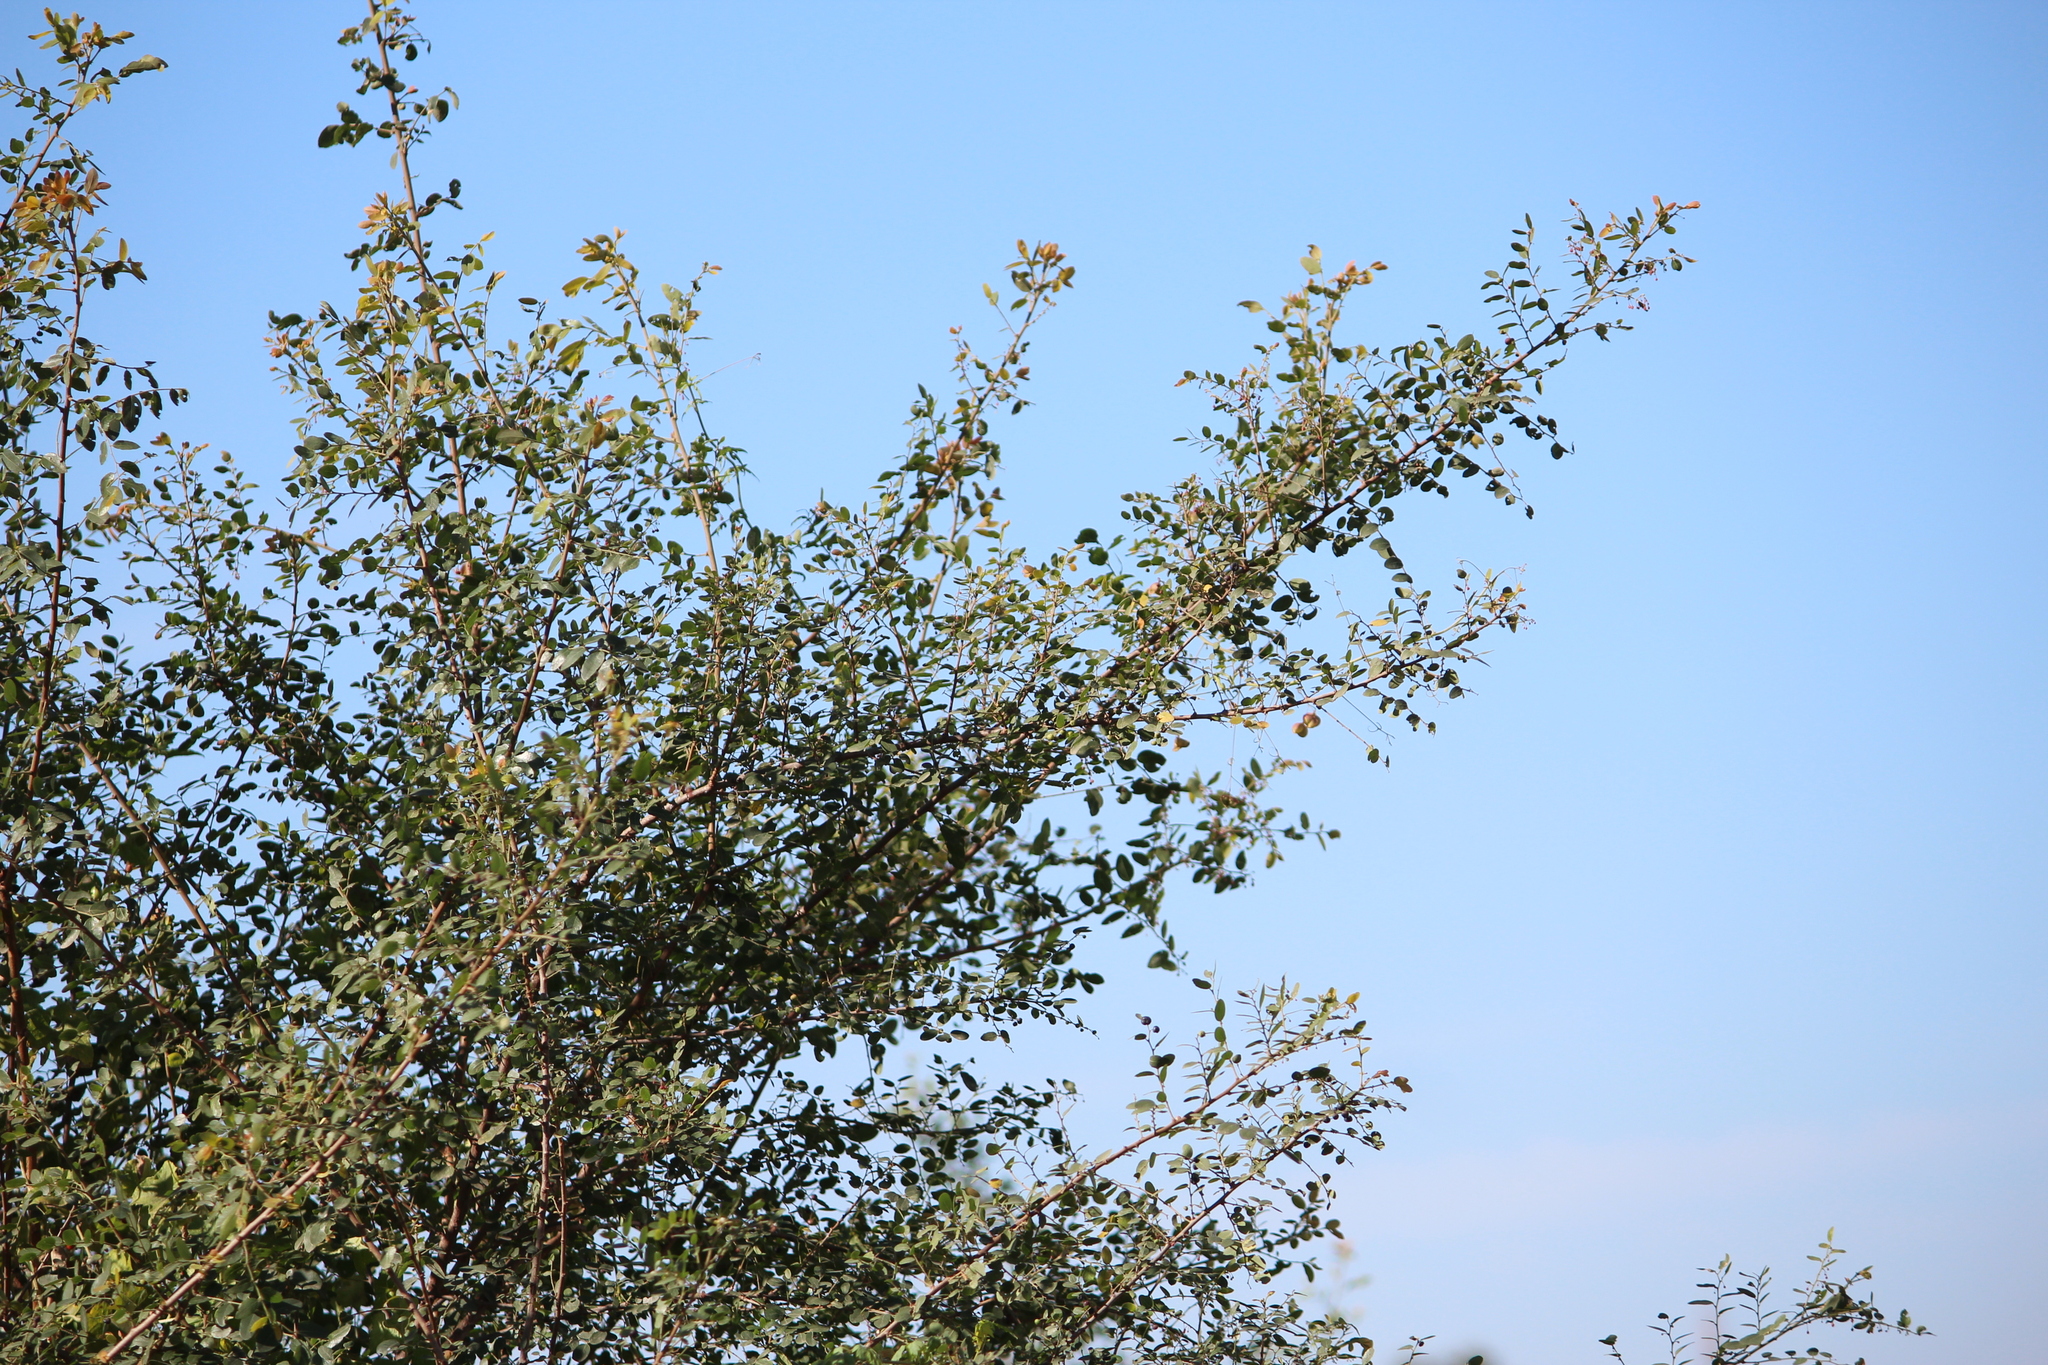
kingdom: Plantae
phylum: Tracheophyta
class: Magnoliopsida
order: Malpighiales
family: Phyllanthaceae
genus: Phyllanthus
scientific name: Phyllanthus reticulatus
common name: Potato bush
